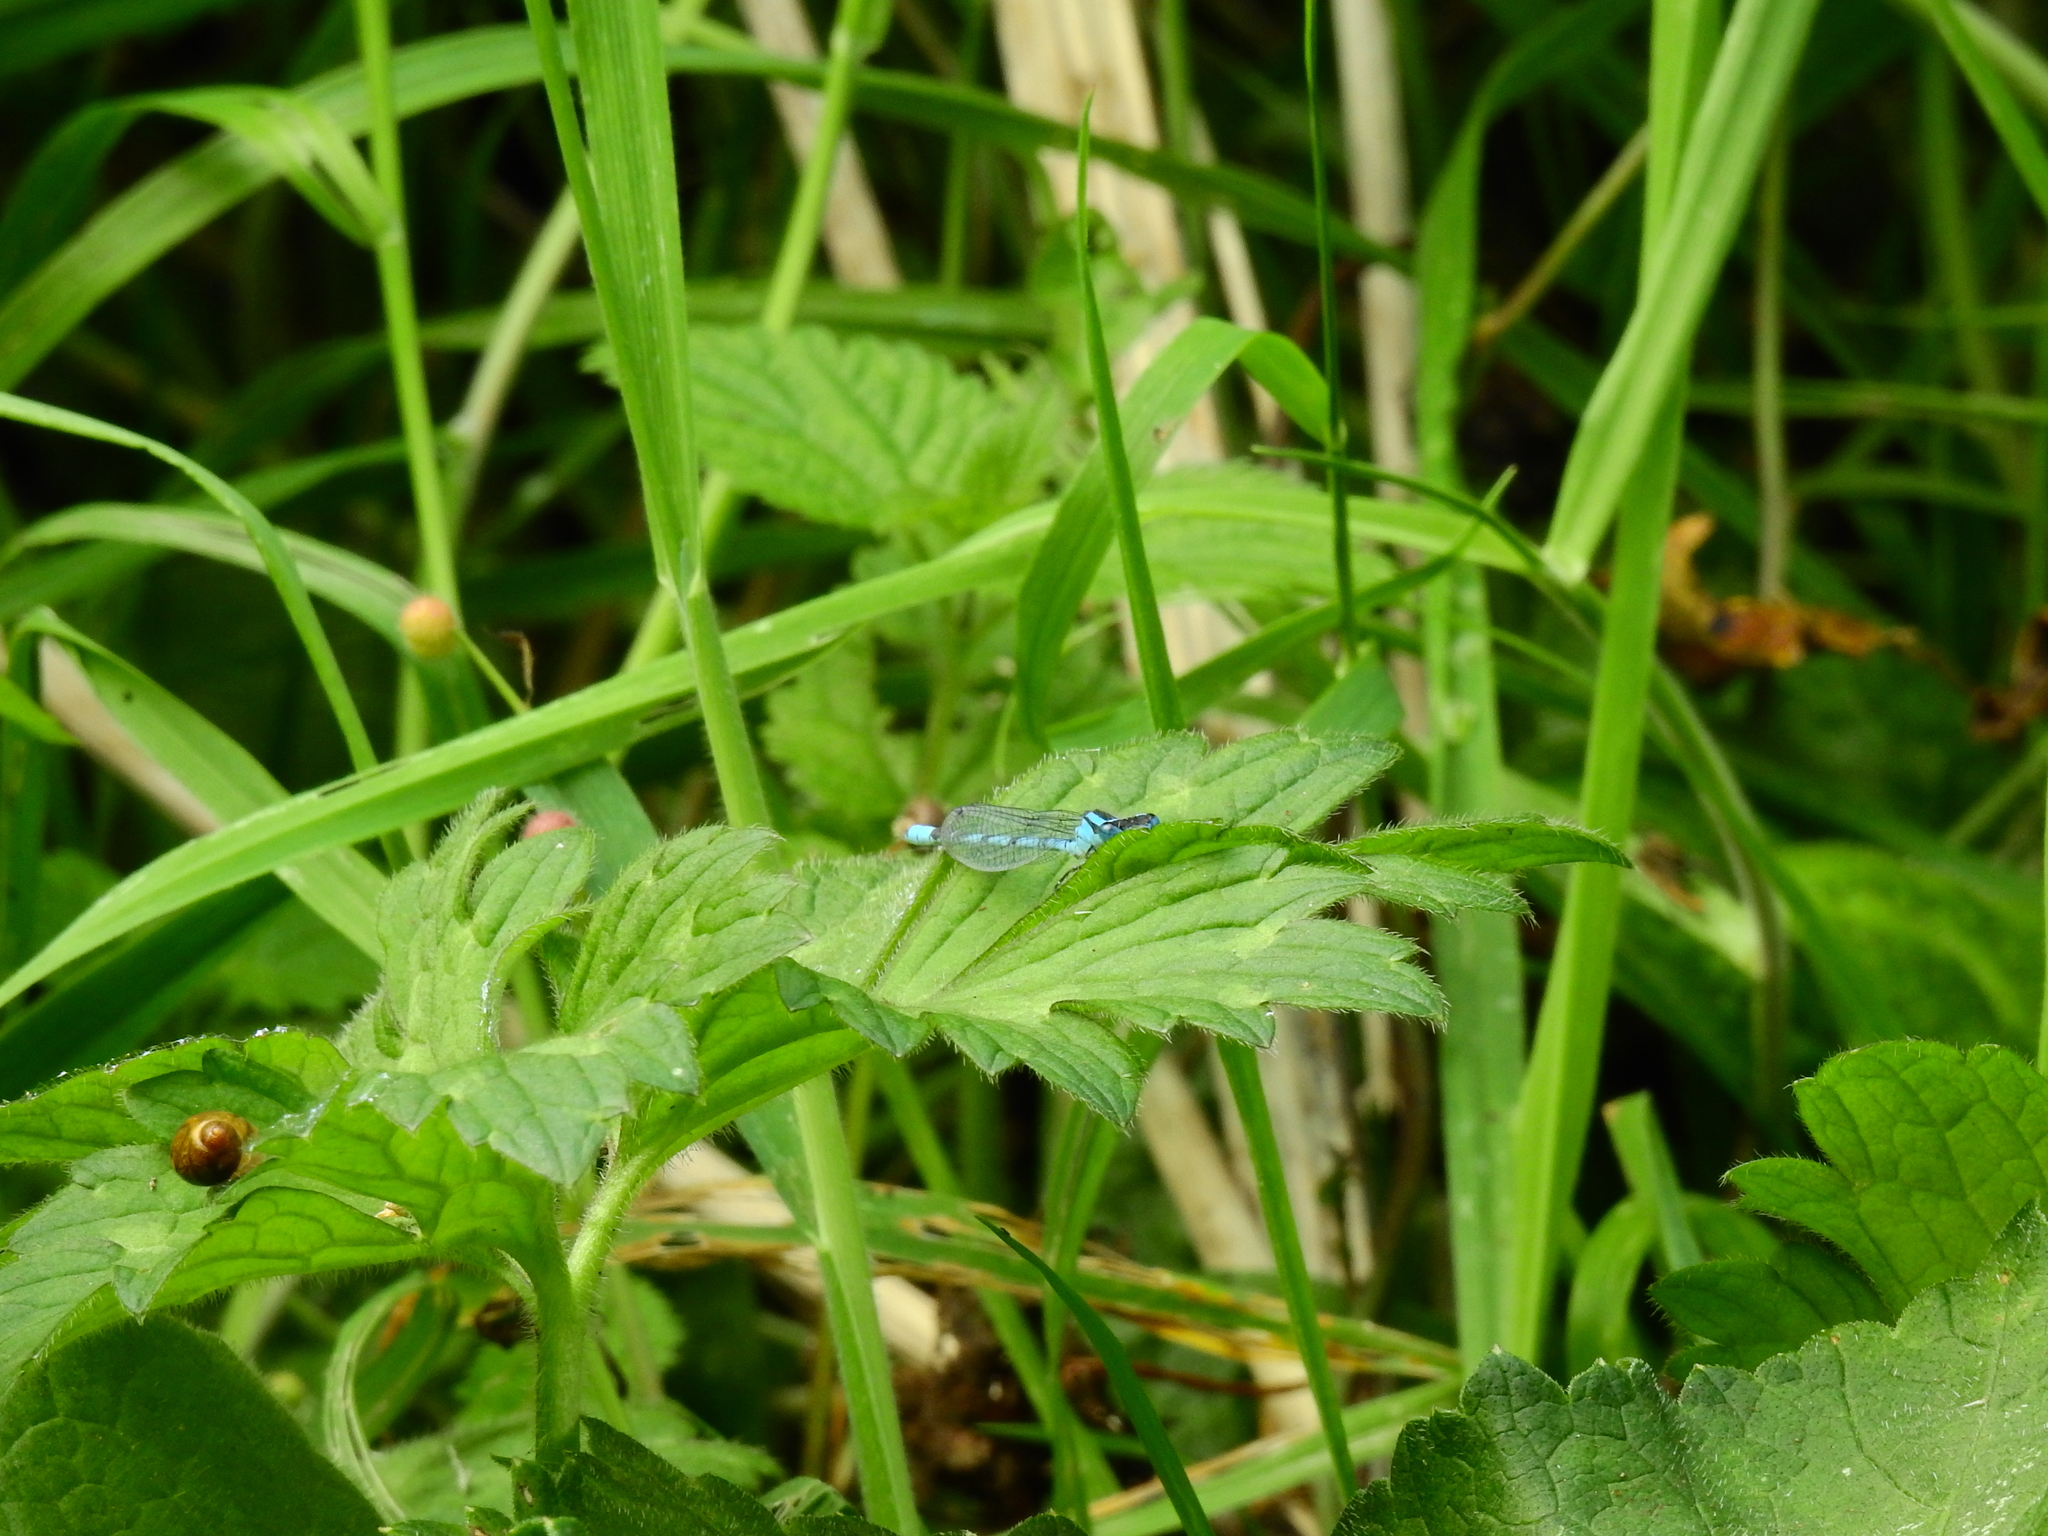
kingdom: Animalia
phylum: Arthropoda
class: Insecta
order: Odonata
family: Coenagrionidae
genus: Enallagma
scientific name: Enallagma cyathigerum
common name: Common blue damselfly
